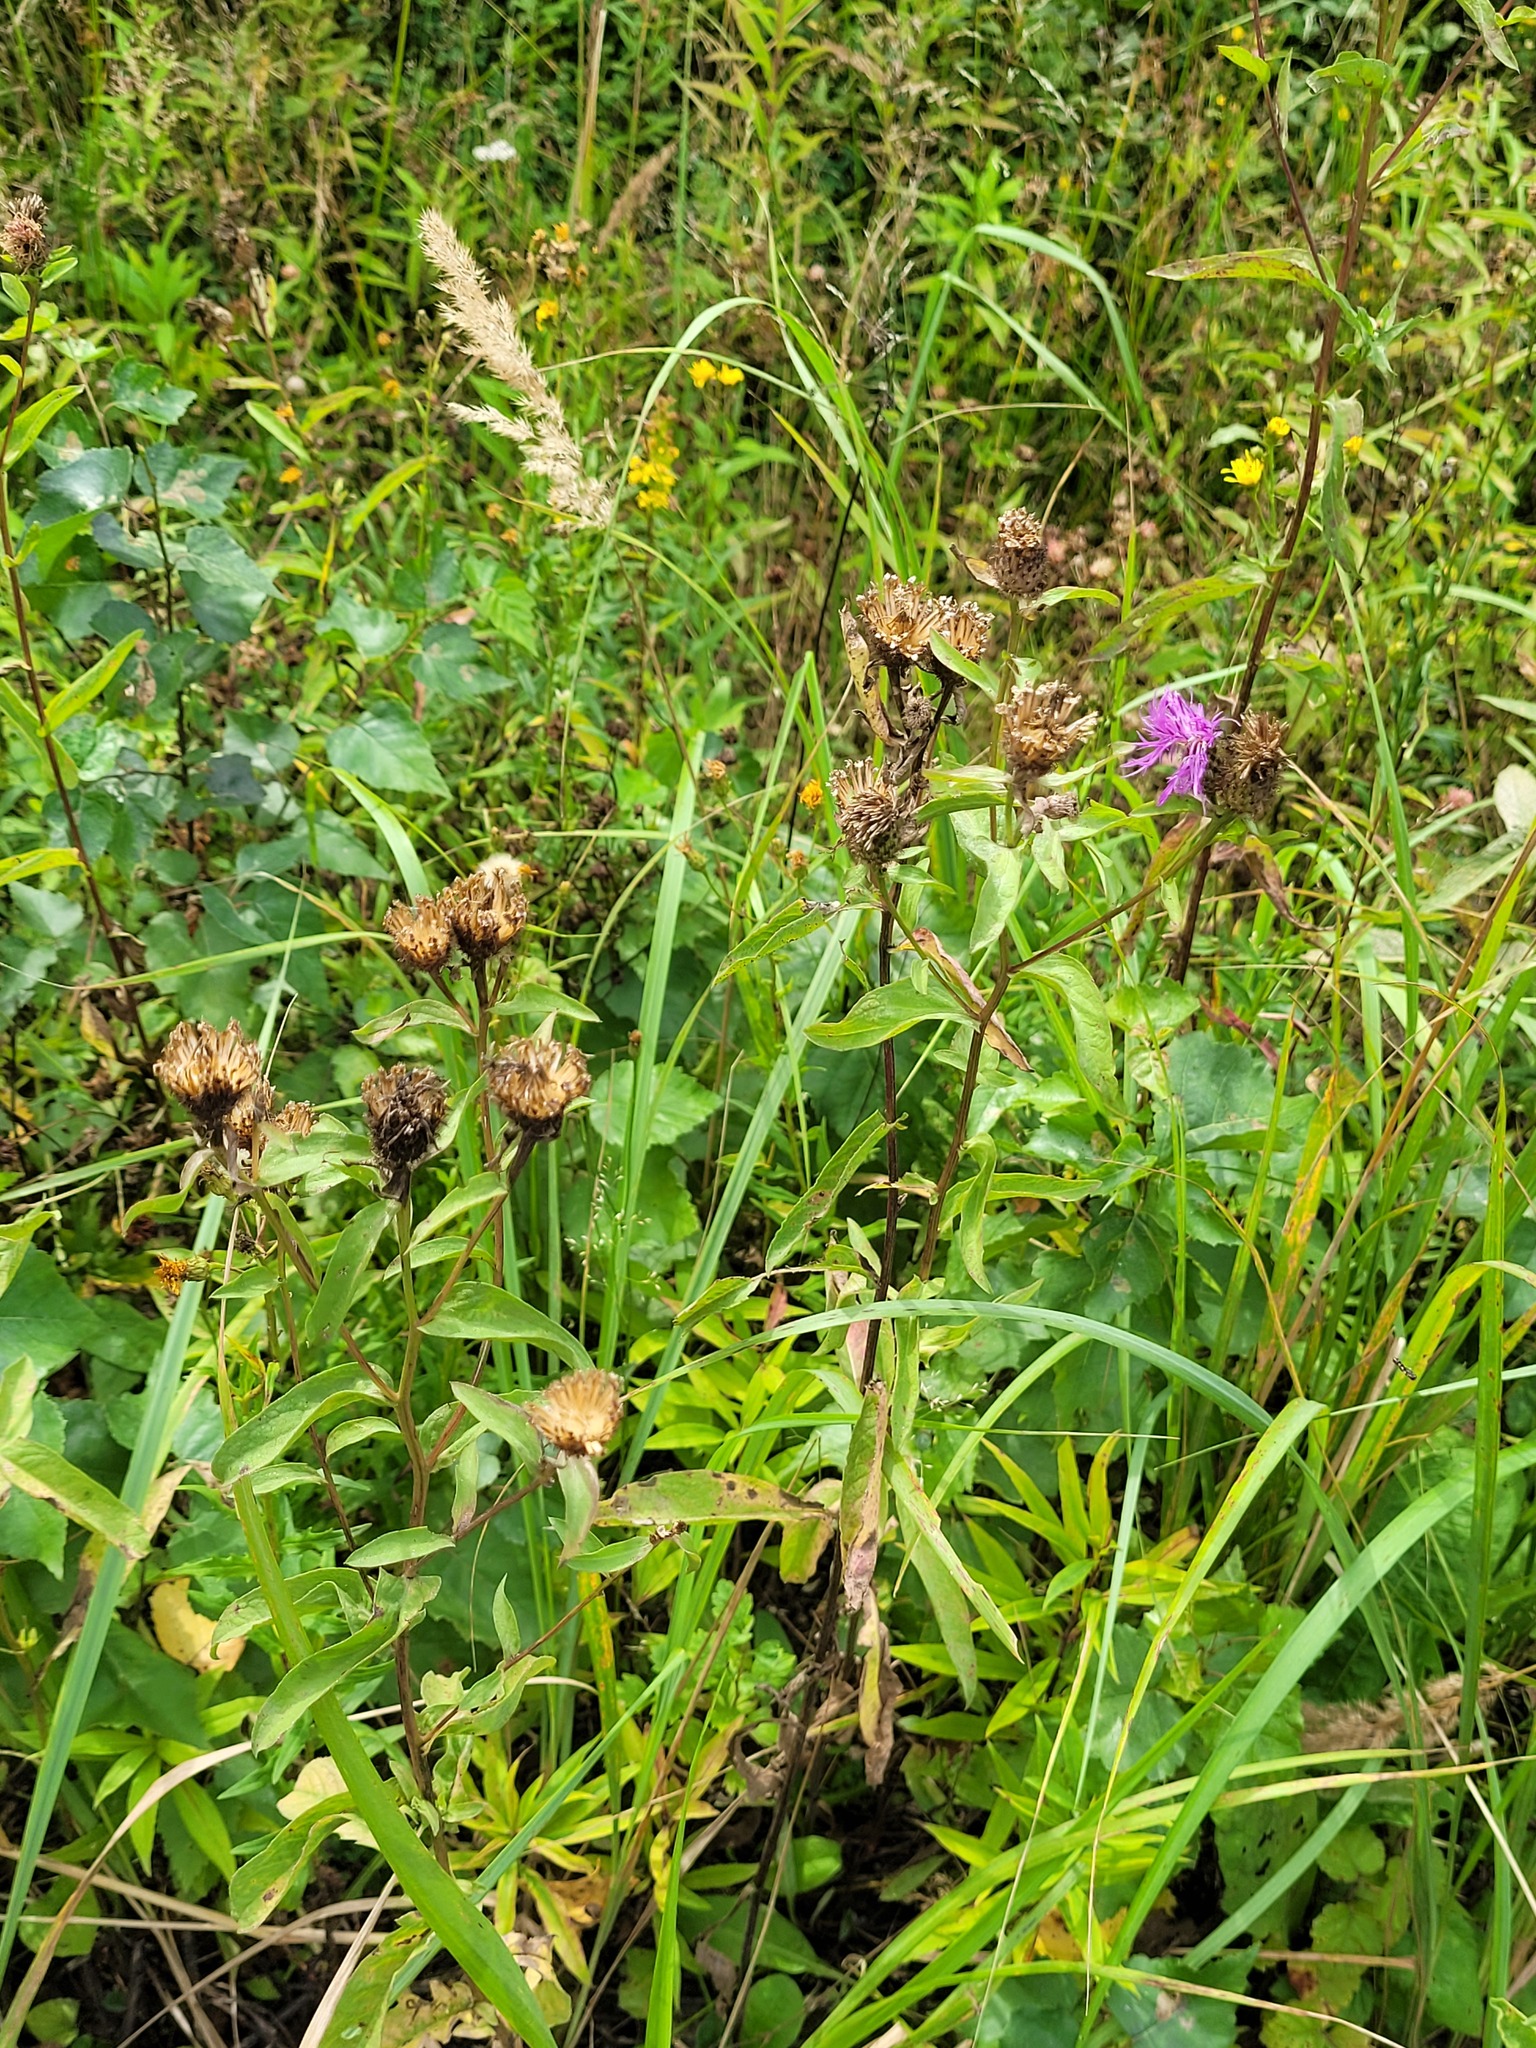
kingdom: Plantae
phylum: Tracheophyta
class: Magnoliopsida
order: Asterales
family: Asteraceae
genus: Centaurea
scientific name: Centaurea phrygia
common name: Wig knapweed
